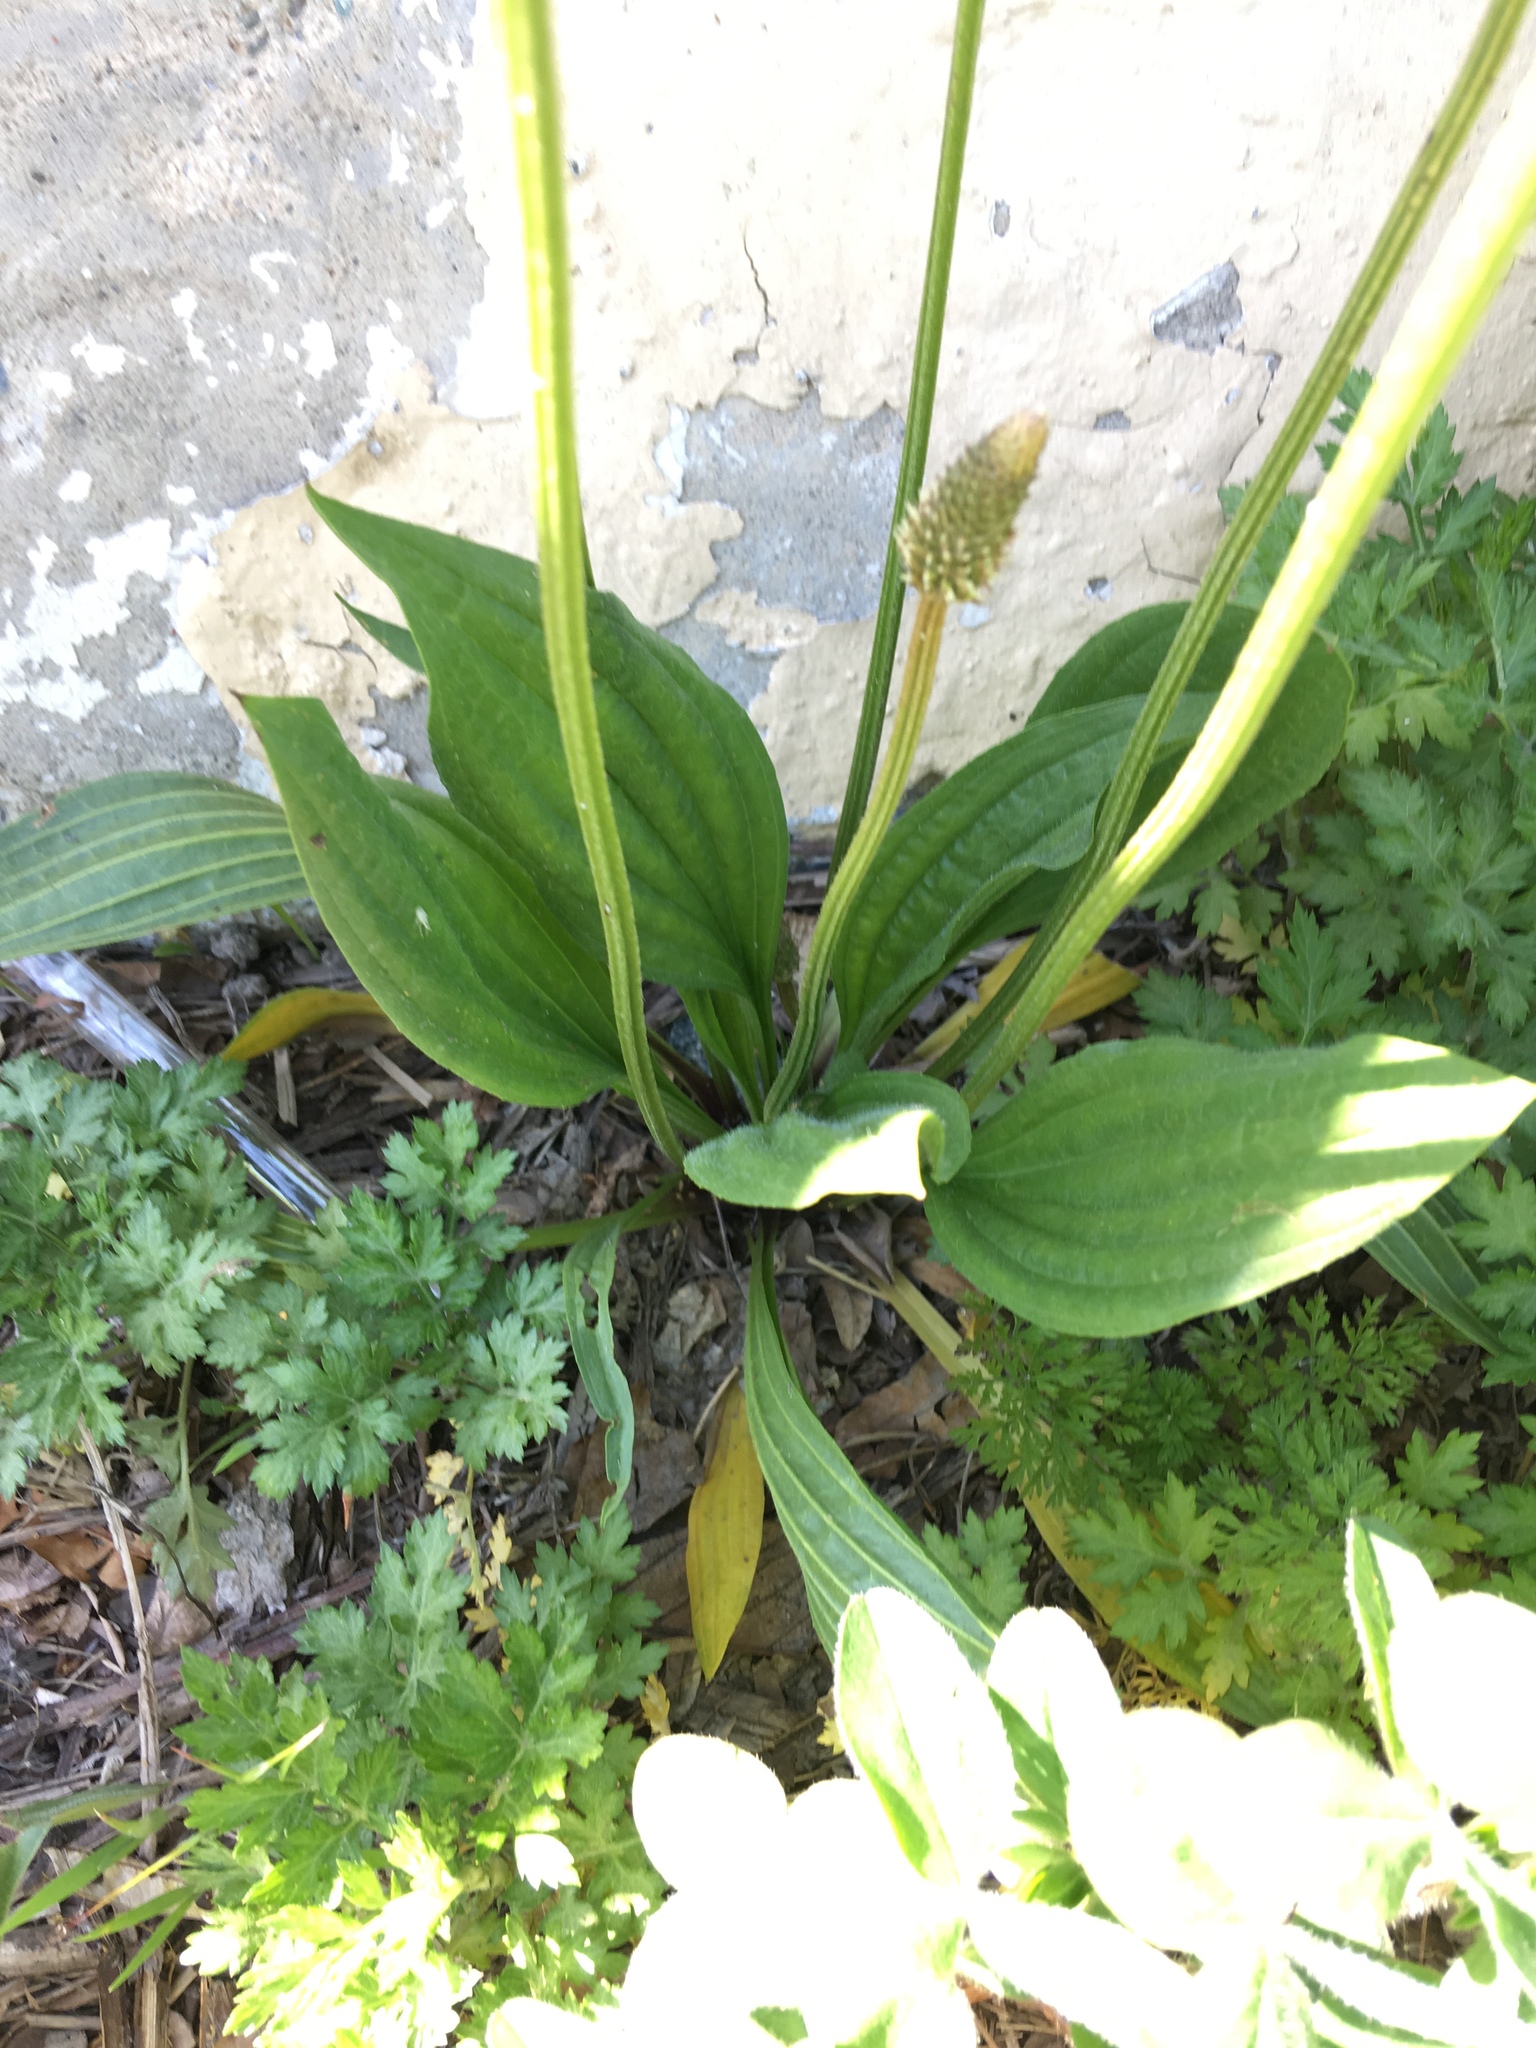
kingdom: Plantae
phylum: Tracheophyta
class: Magnoliopsida
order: Lamiales
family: Plantaginaceae
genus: Plantago
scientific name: Plantago lanceolata
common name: Ribwort plantain
